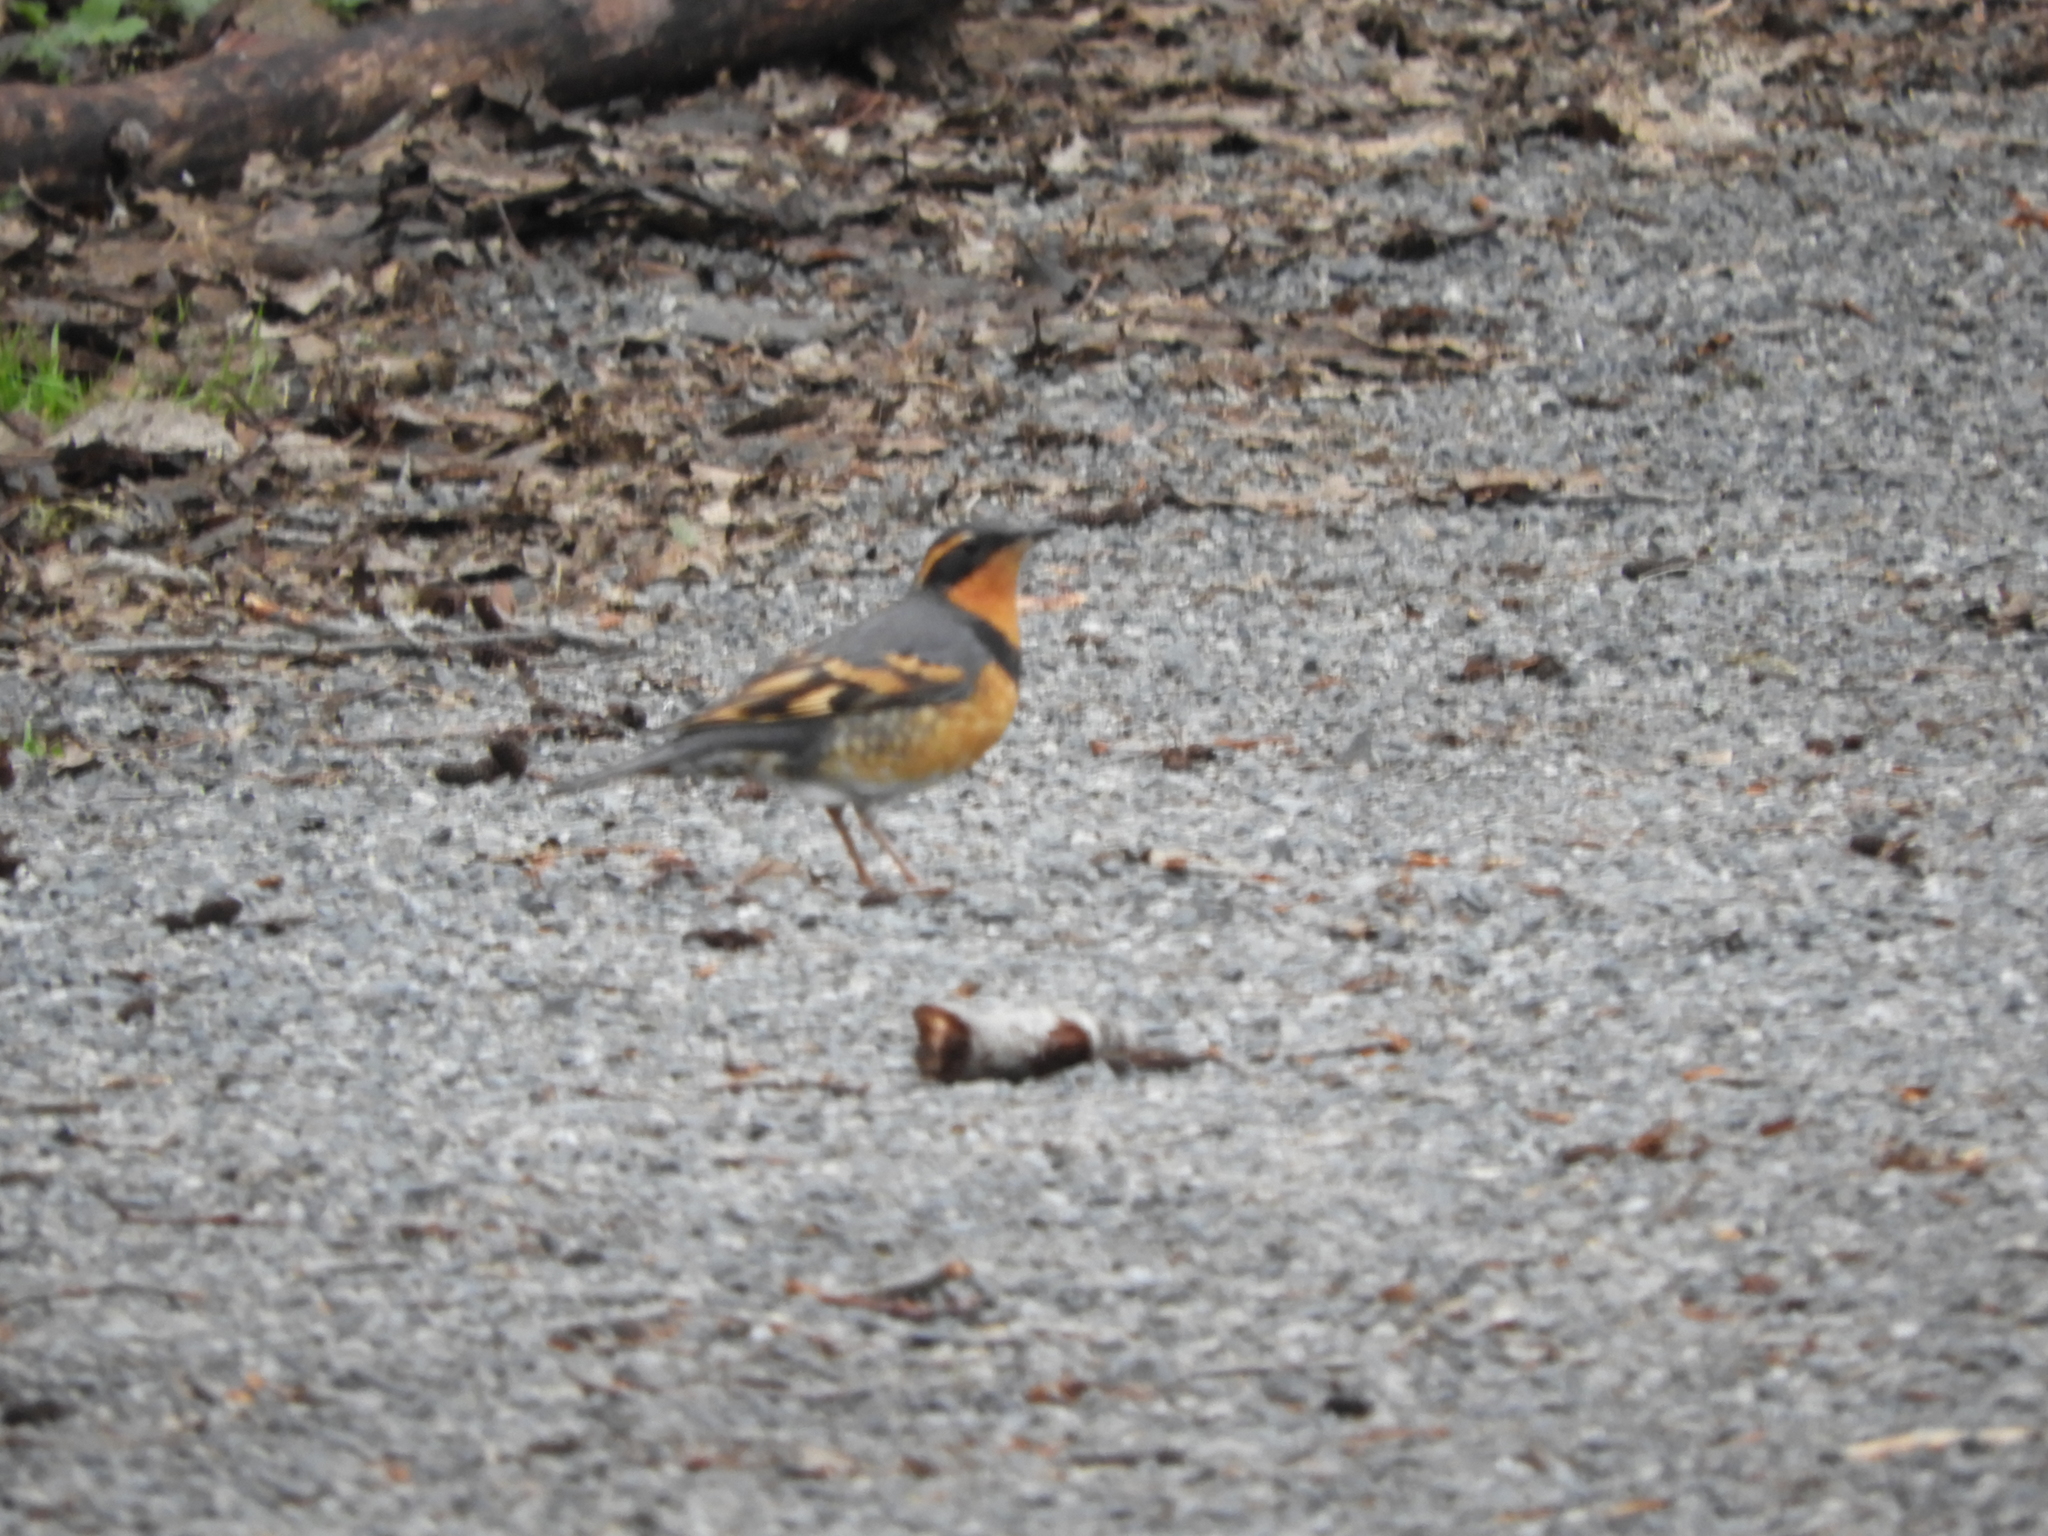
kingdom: Animalia
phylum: Chordata
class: Aves
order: Passeriformes
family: Turdidae
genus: Ixoreus
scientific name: Ixoreus naevius
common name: Varied thrush
